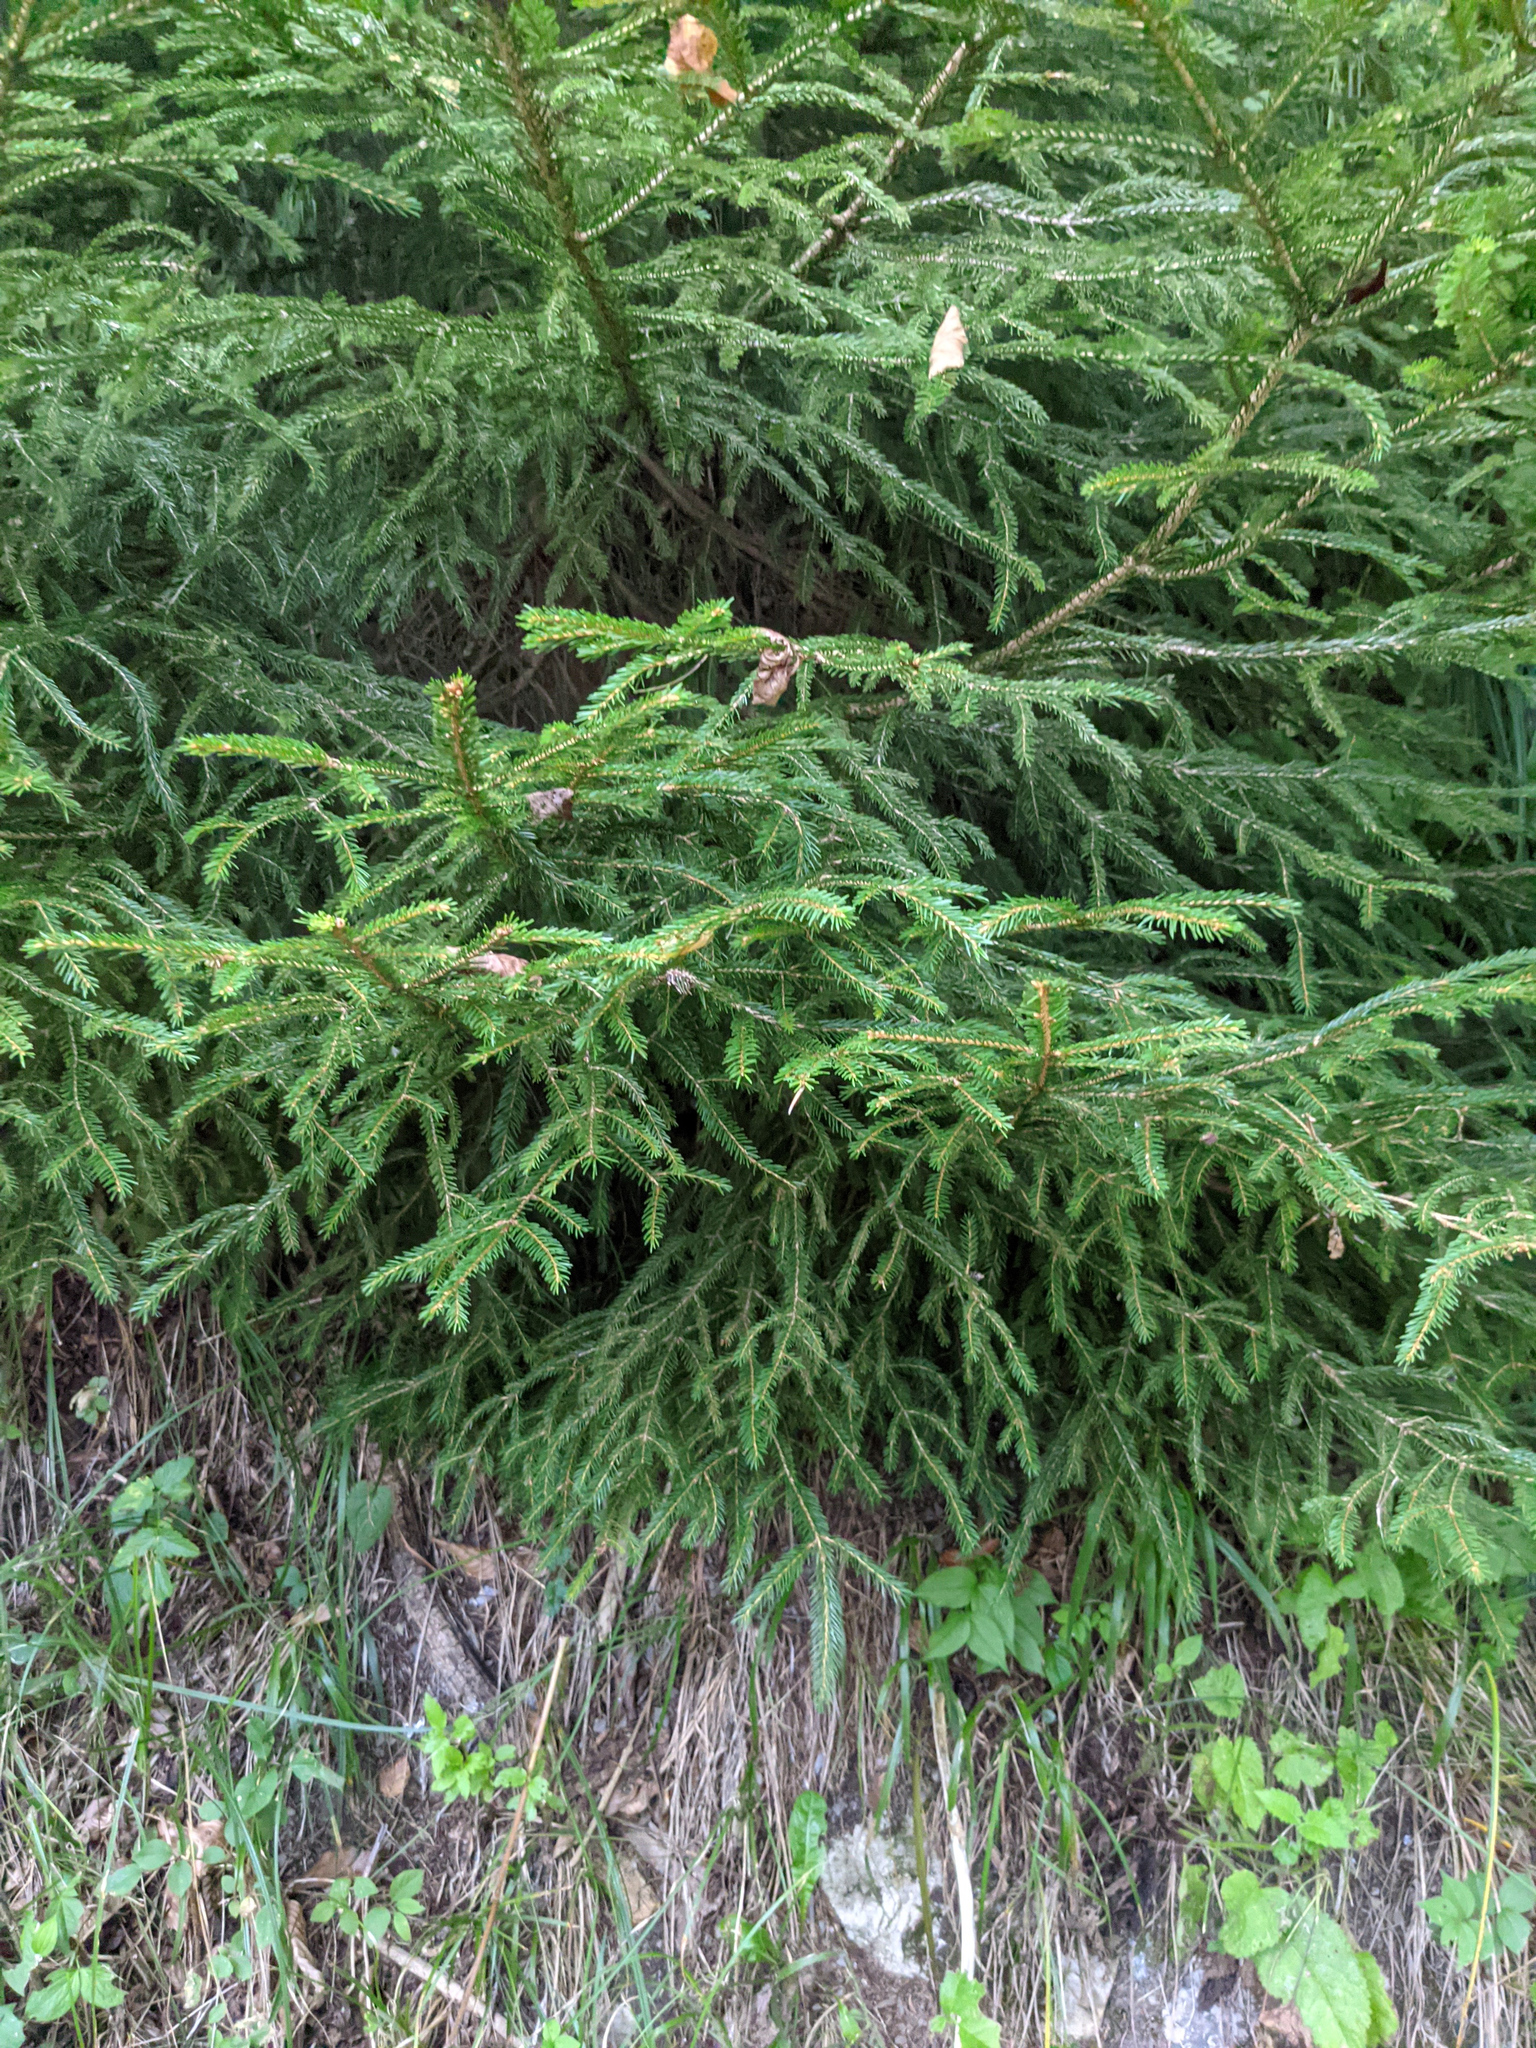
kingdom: Plantae
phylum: Tracheophyta
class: Pinopsida
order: Pinales
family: Pinaceae
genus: Picea
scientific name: Picea abies
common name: Norway spruce
